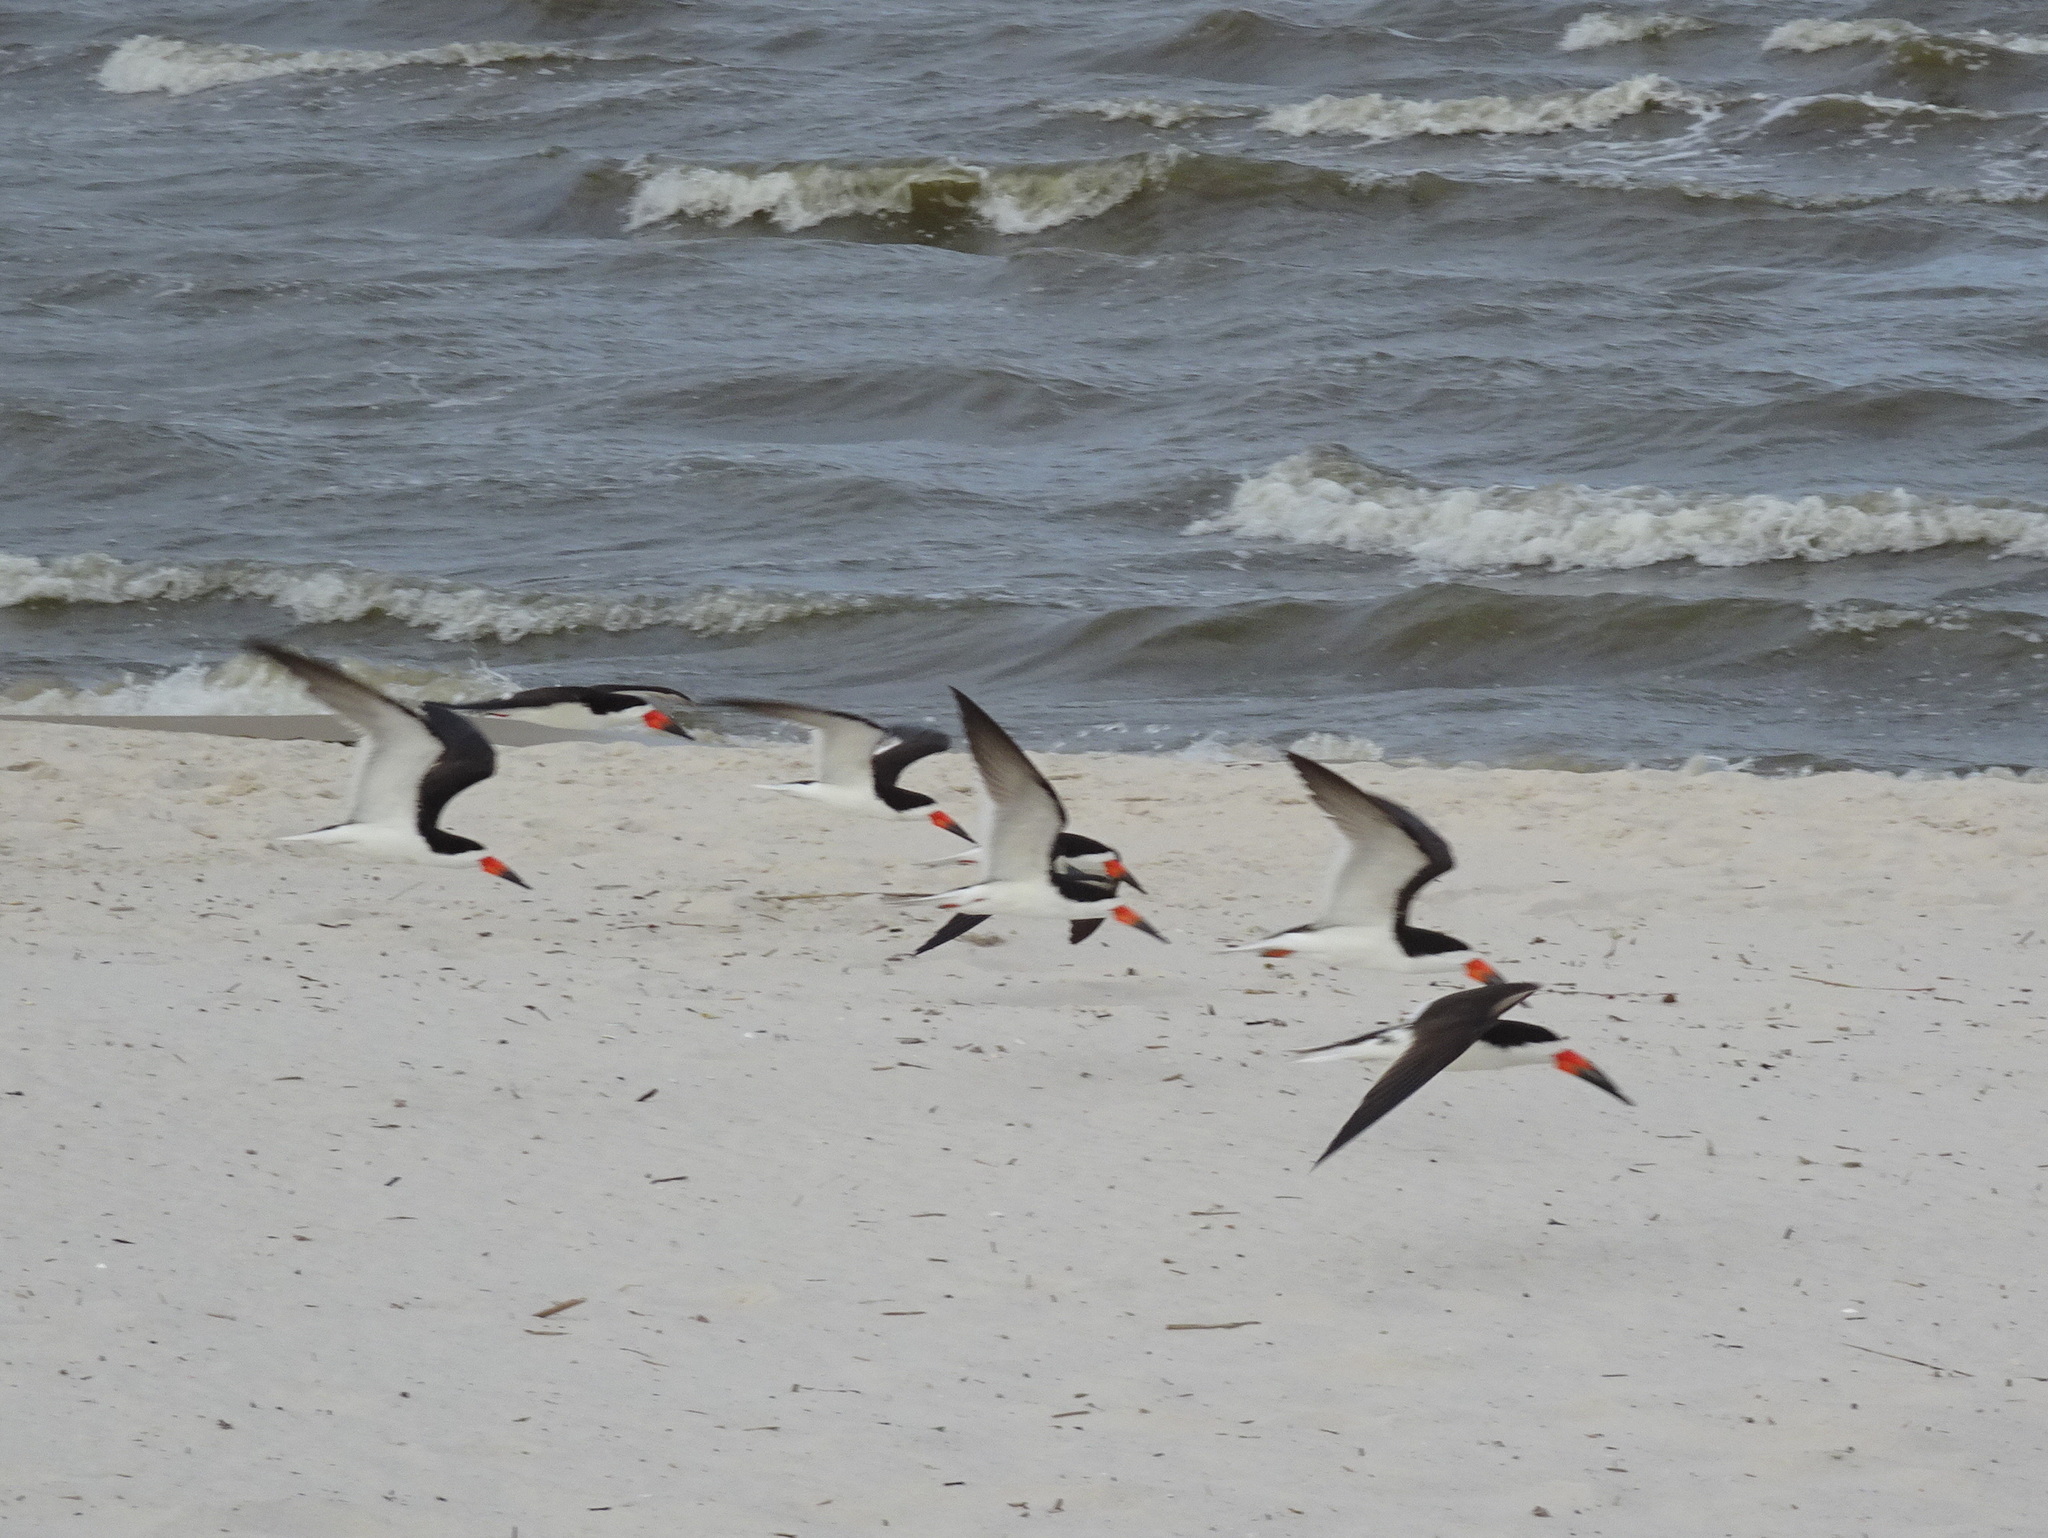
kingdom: Animalia
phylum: Chordata
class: Aves
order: Charadriiformes
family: Laridae
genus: Rynchops
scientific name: Rynchops niger
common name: Black skimmer
